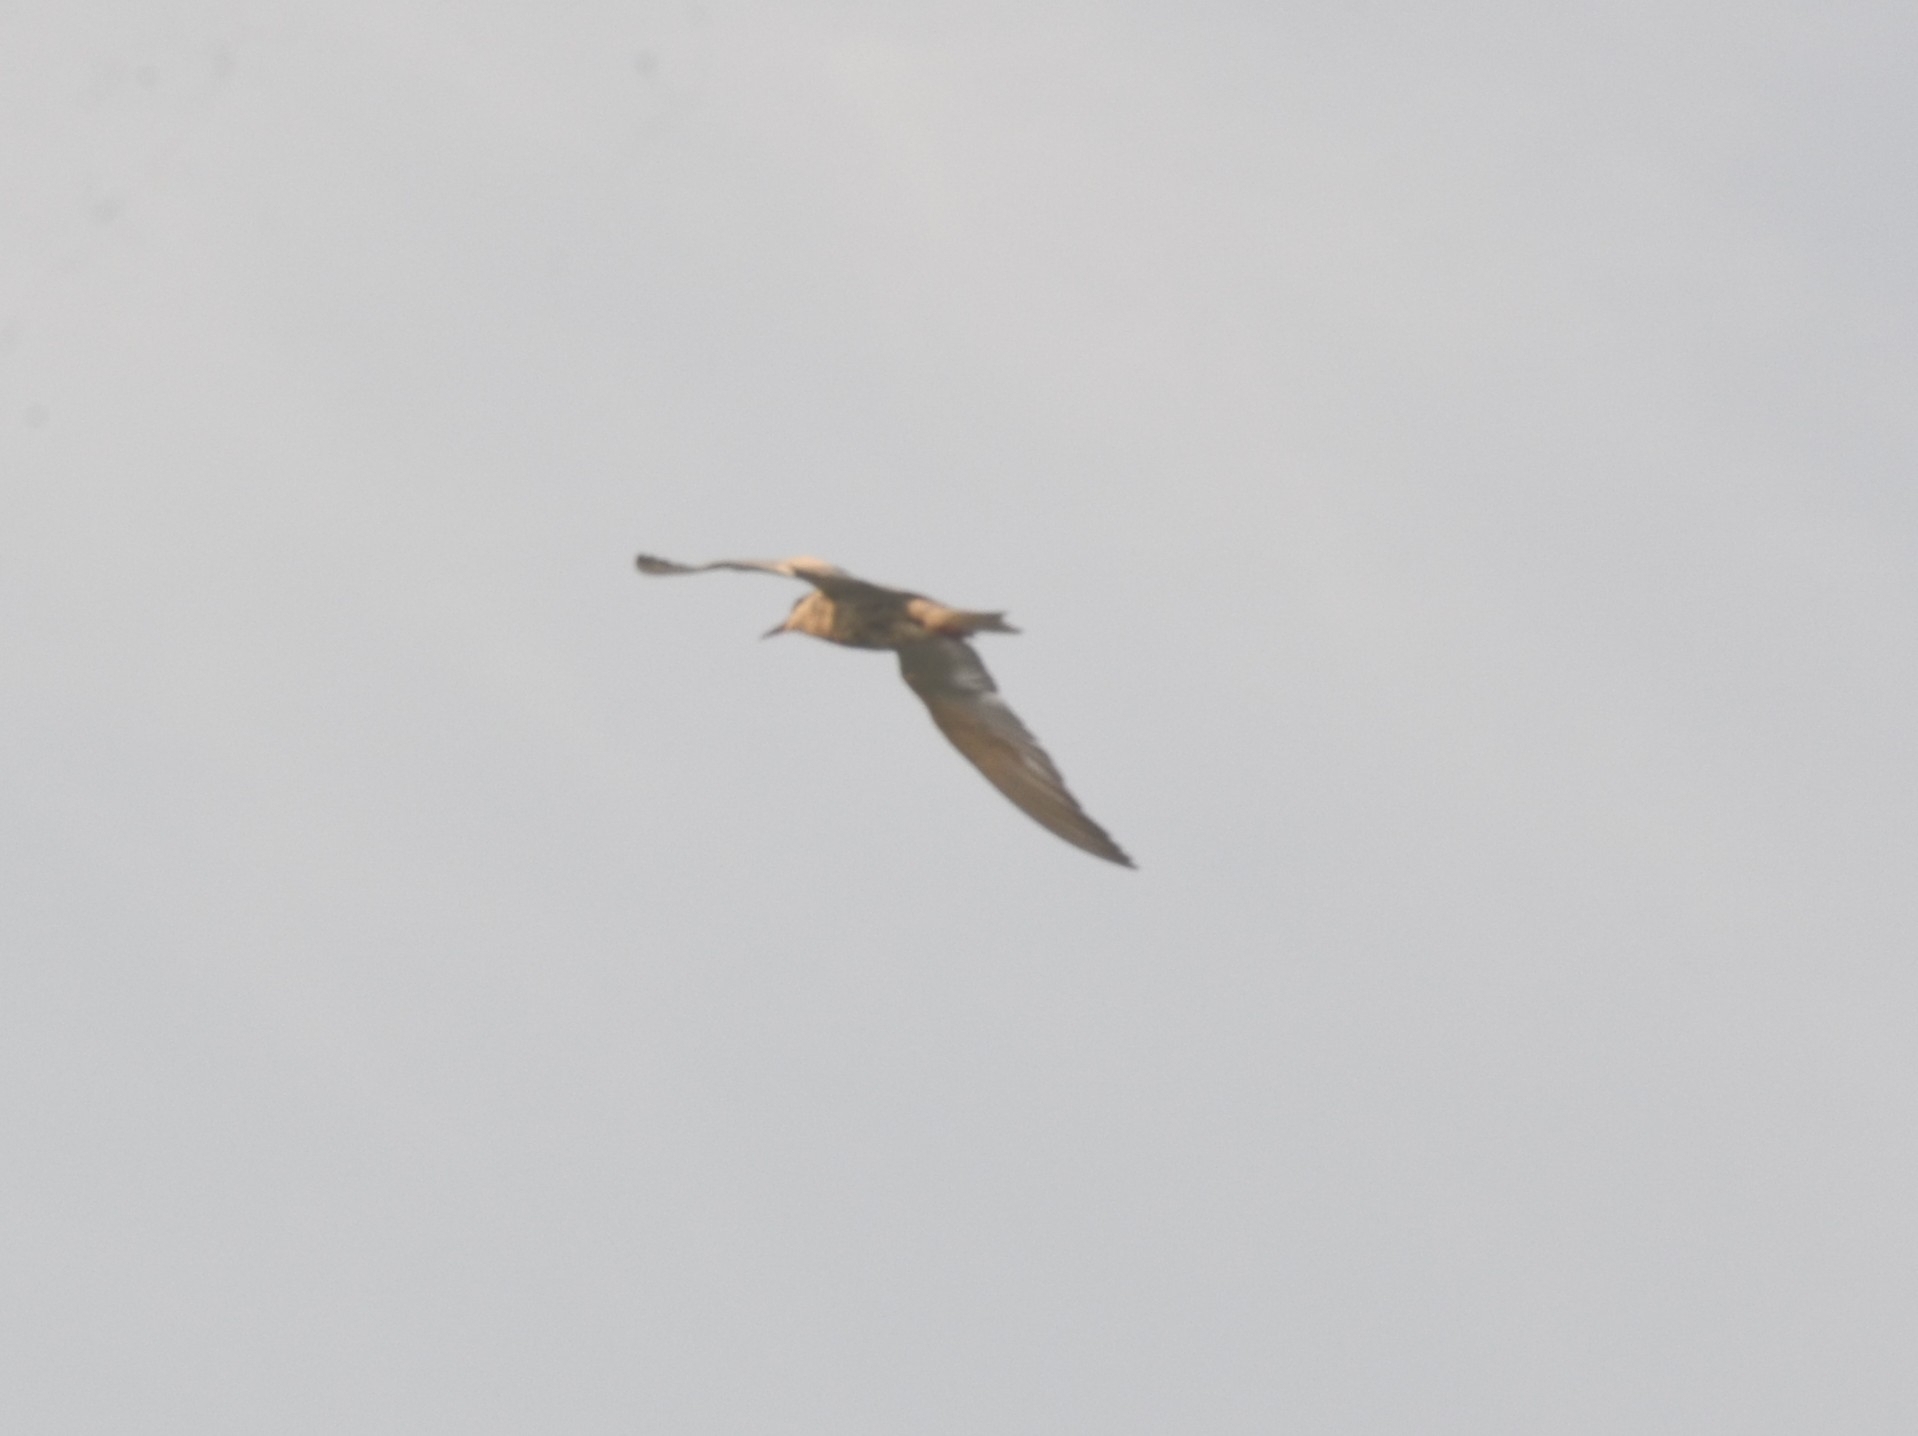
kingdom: Animalia
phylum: Chordata
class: Aves
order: Charadriiformes
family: Laridae
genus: Chlidonias
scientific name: Chlidonias hybrida
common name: Whiskered tern
